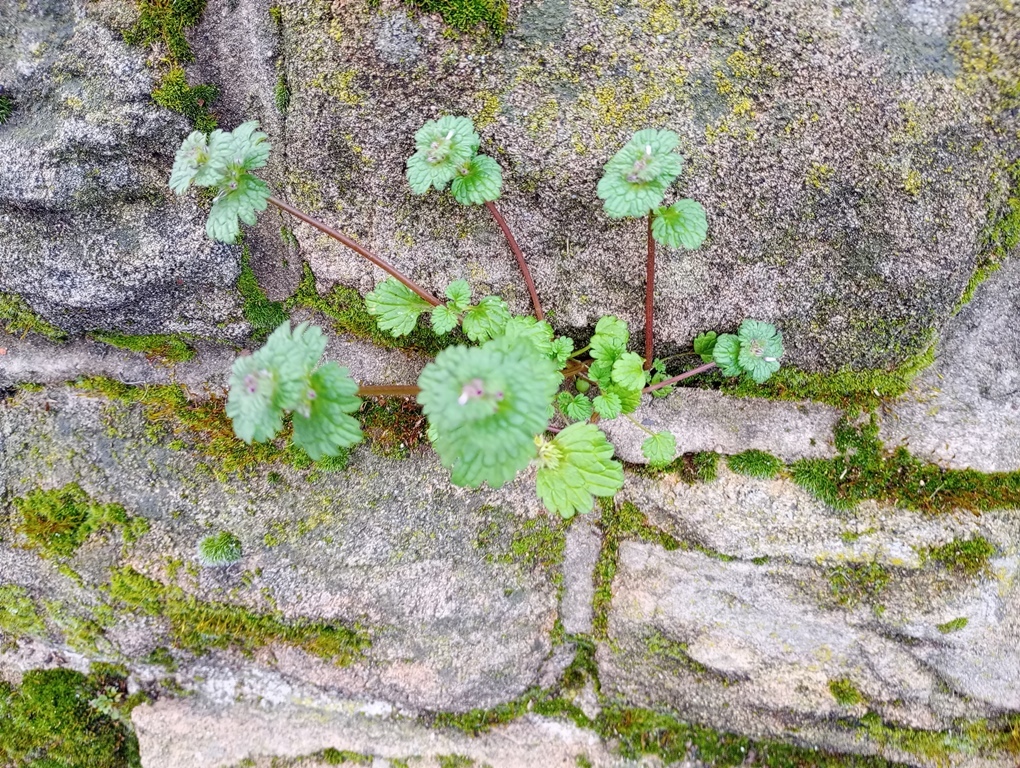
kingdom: Plantae
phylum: Tracheophyta
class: Magnoliopsida
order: Lamiales
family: Lamiaceae
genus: Lamium
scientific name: Lamium amplexicaule
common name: Henbit dead-nettle
